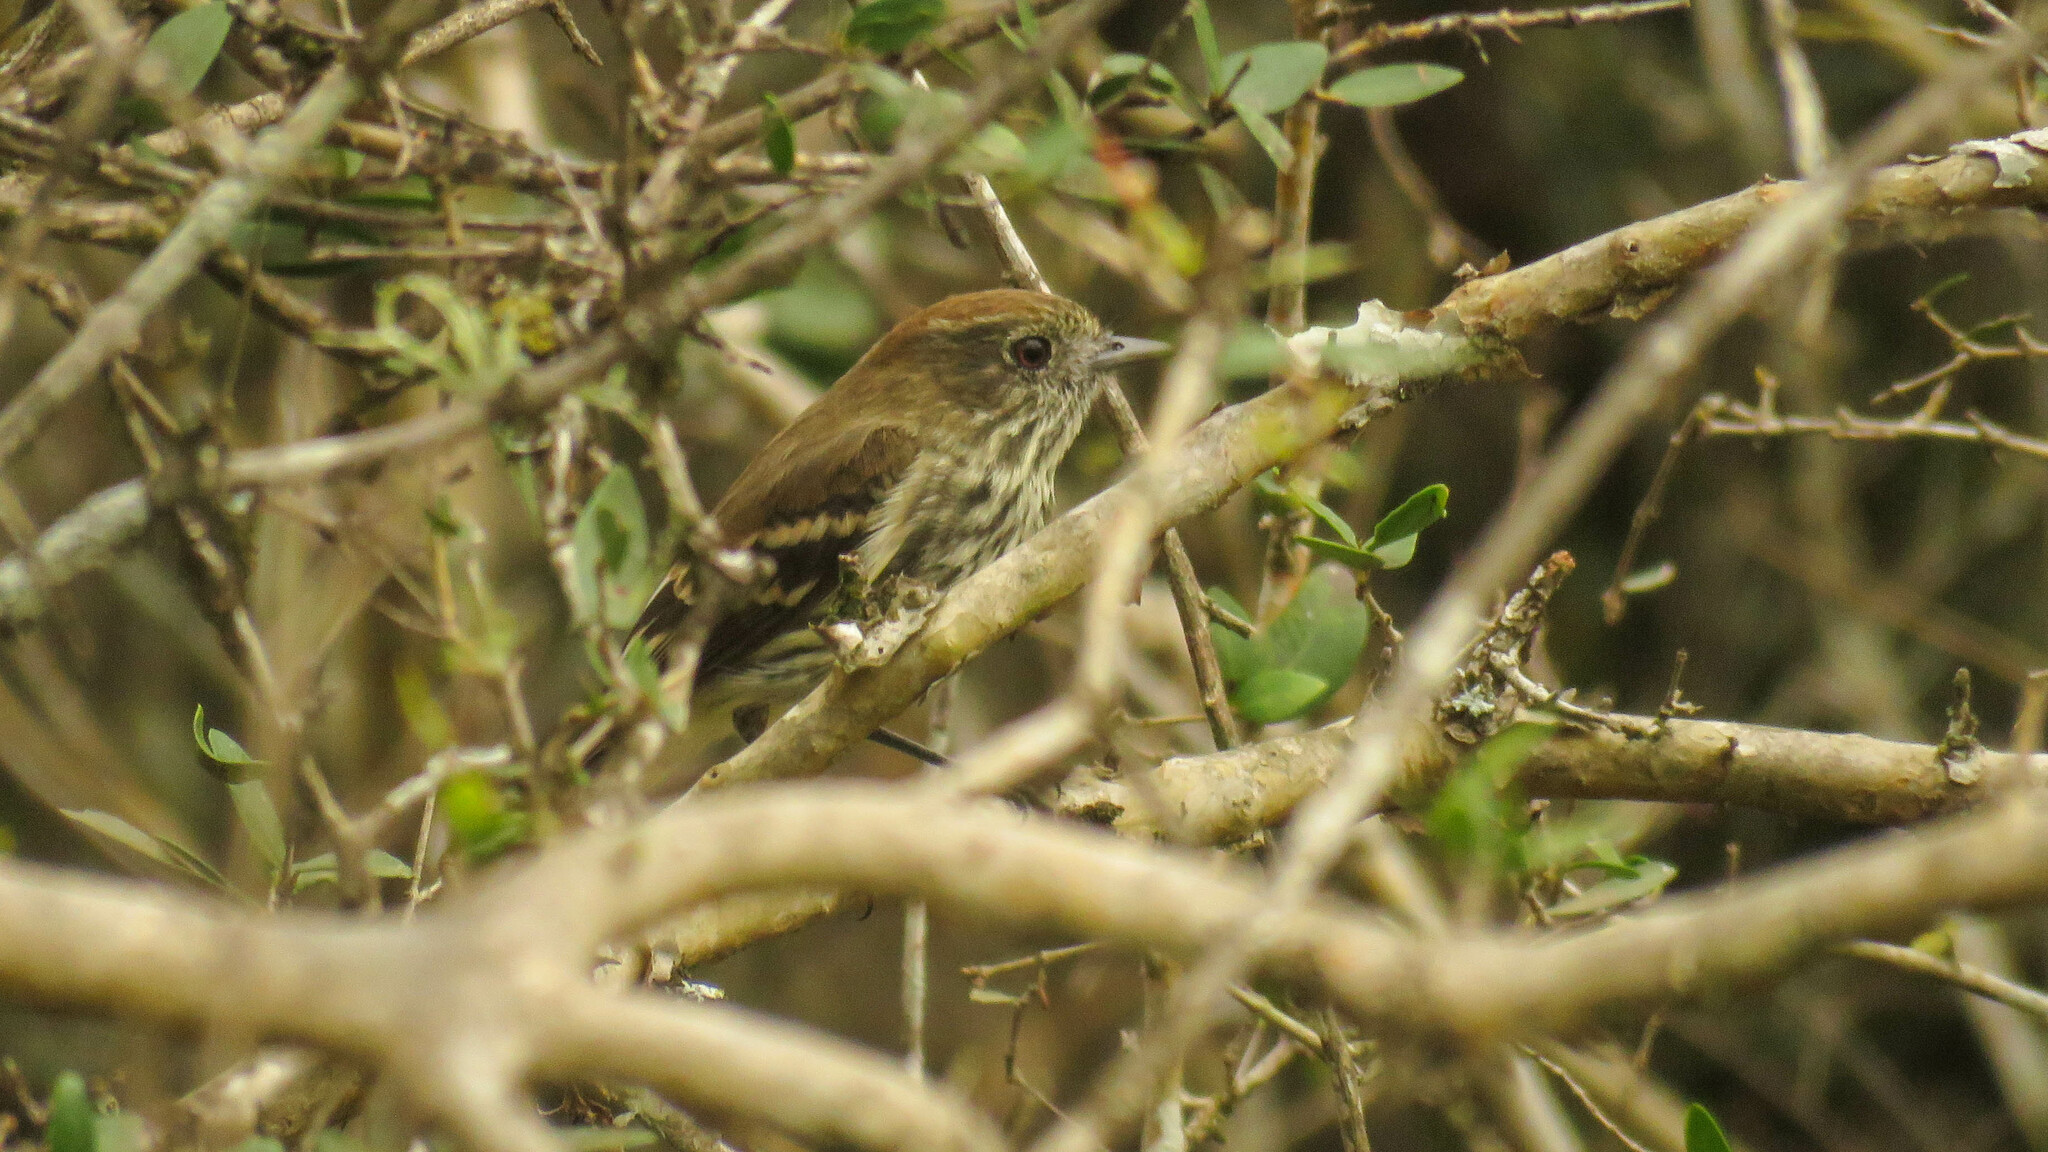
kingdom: Animalia
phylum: Chordata
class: Aves
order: Passeriformes
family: Tyrannidae
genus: Knipolegus
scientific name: Knipolegus cyanirostris
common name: Blue-billed black tyrant
